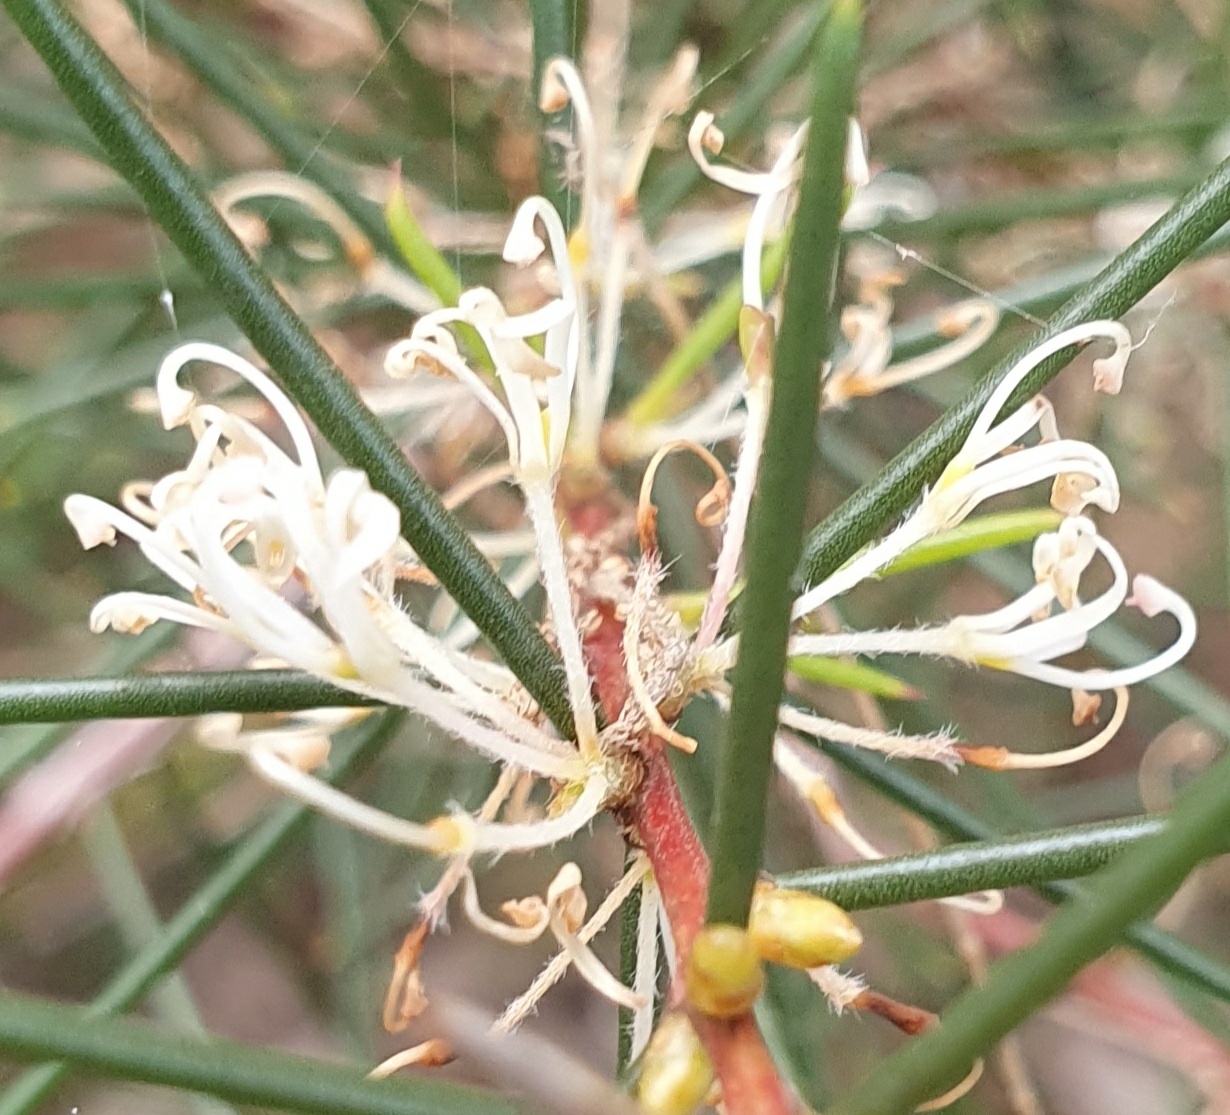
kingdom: Plantae
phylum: Tracheophyta
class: Magnoliopsida
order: Proteales
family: Proteaceae
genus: Hakea
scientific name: Hakea sericea
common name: Needle bush
